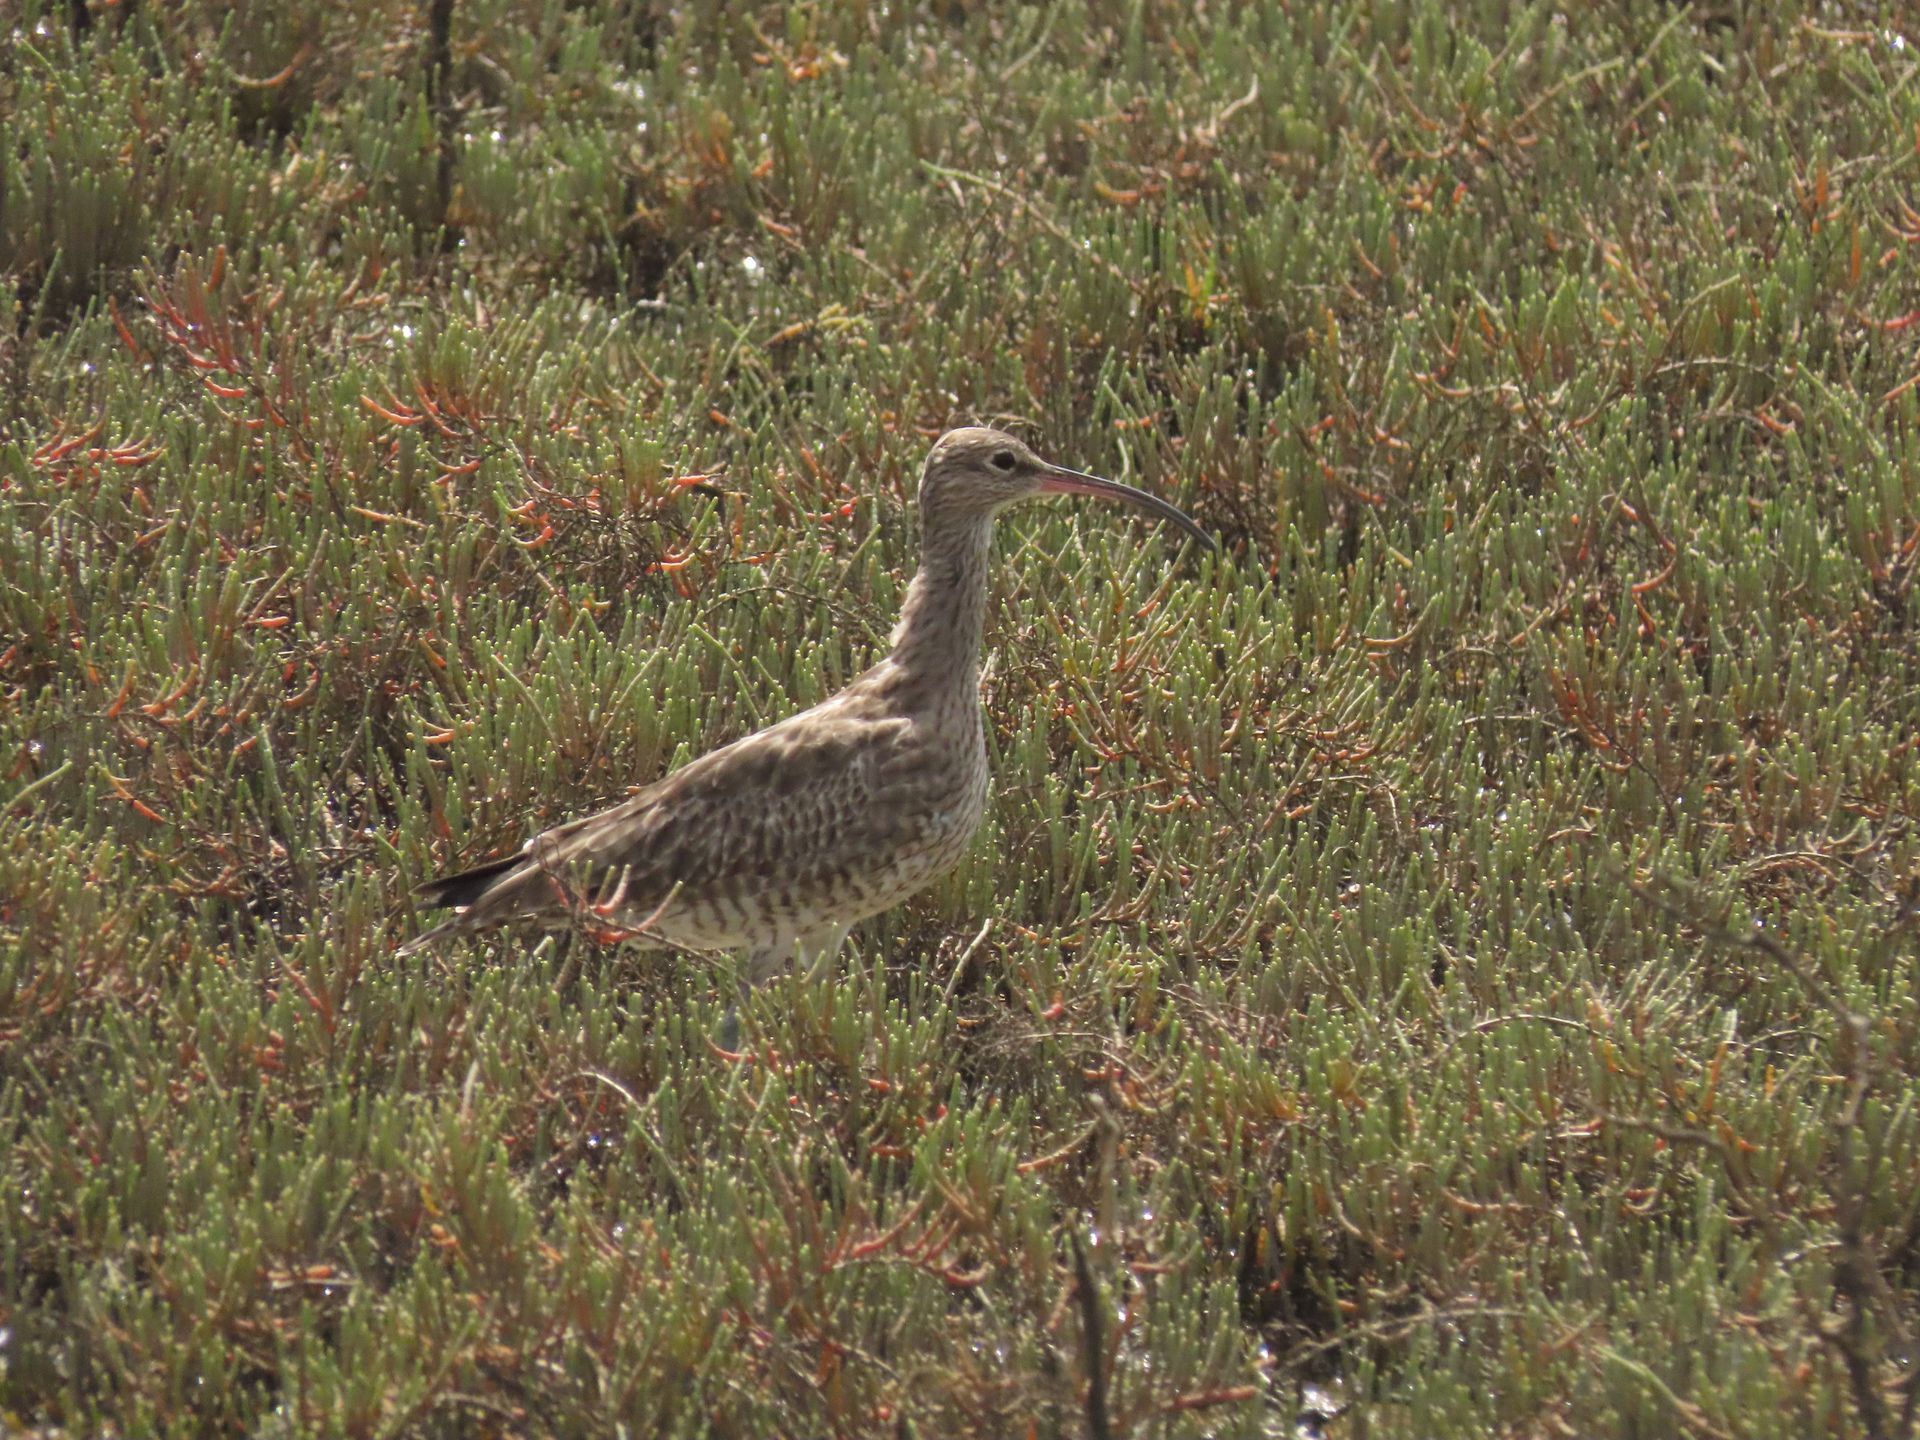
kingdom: Animalia
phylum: Chordata
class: Aves
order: Charadriiformes
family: Scolopacidae
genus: Numenius
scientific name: Numenius phaeopus
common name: Whimbrel
